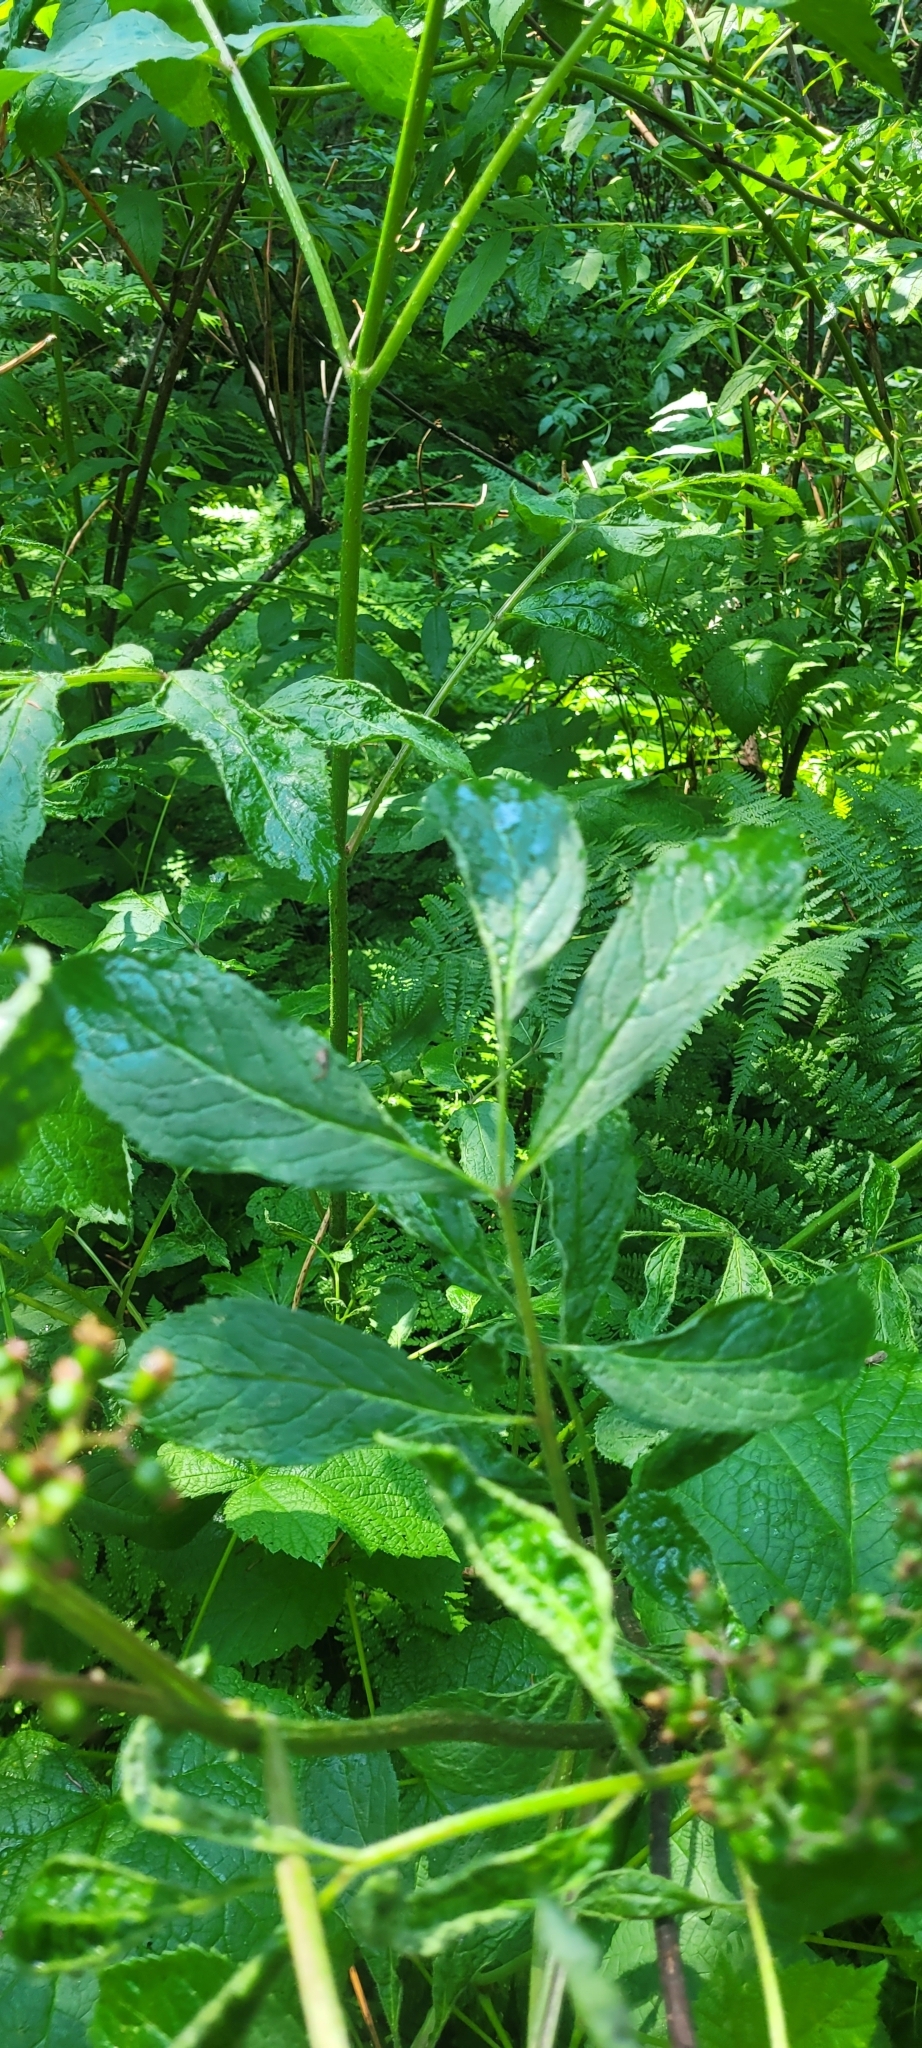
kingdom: Plantae
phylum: Tracheophyta
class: Magnoliopsida
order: Dipsacales
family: Viburnaceae
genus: Sambucus
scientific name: Sambucus racemosa
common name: Red-berried elder
